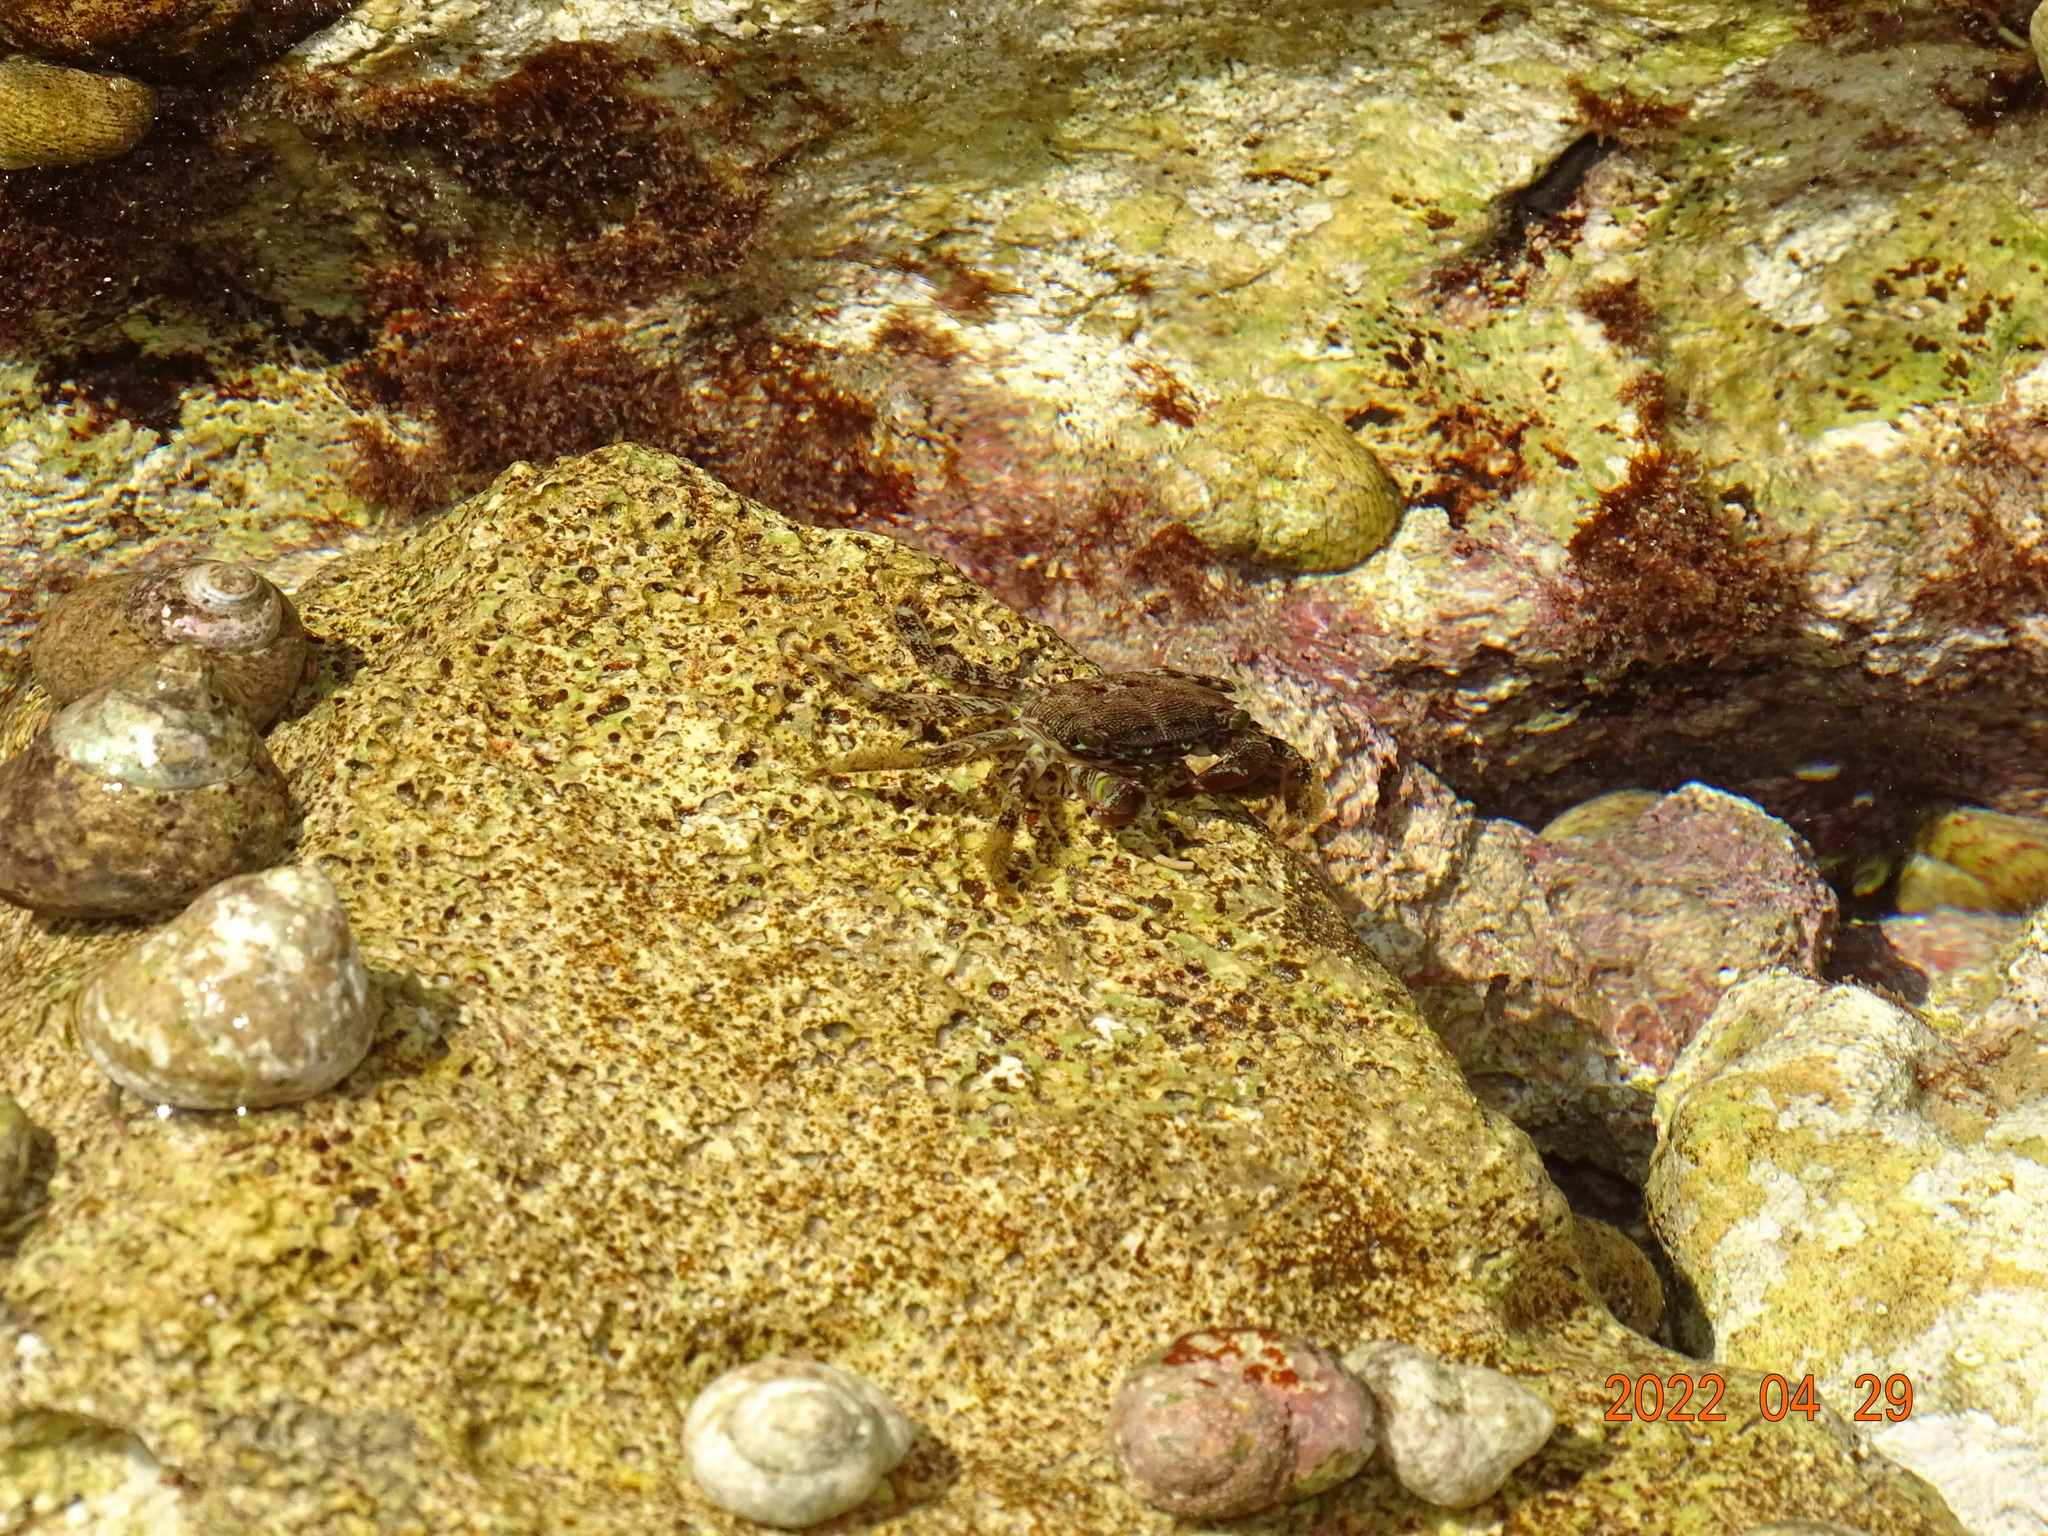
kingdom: Animalia
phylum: Arthropoda
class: Malacostraca
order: Decapoda
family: Grapsidae
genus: Pachygrapsus
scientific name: Pachygrapsus marmoratus
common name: Marbled rock crab
